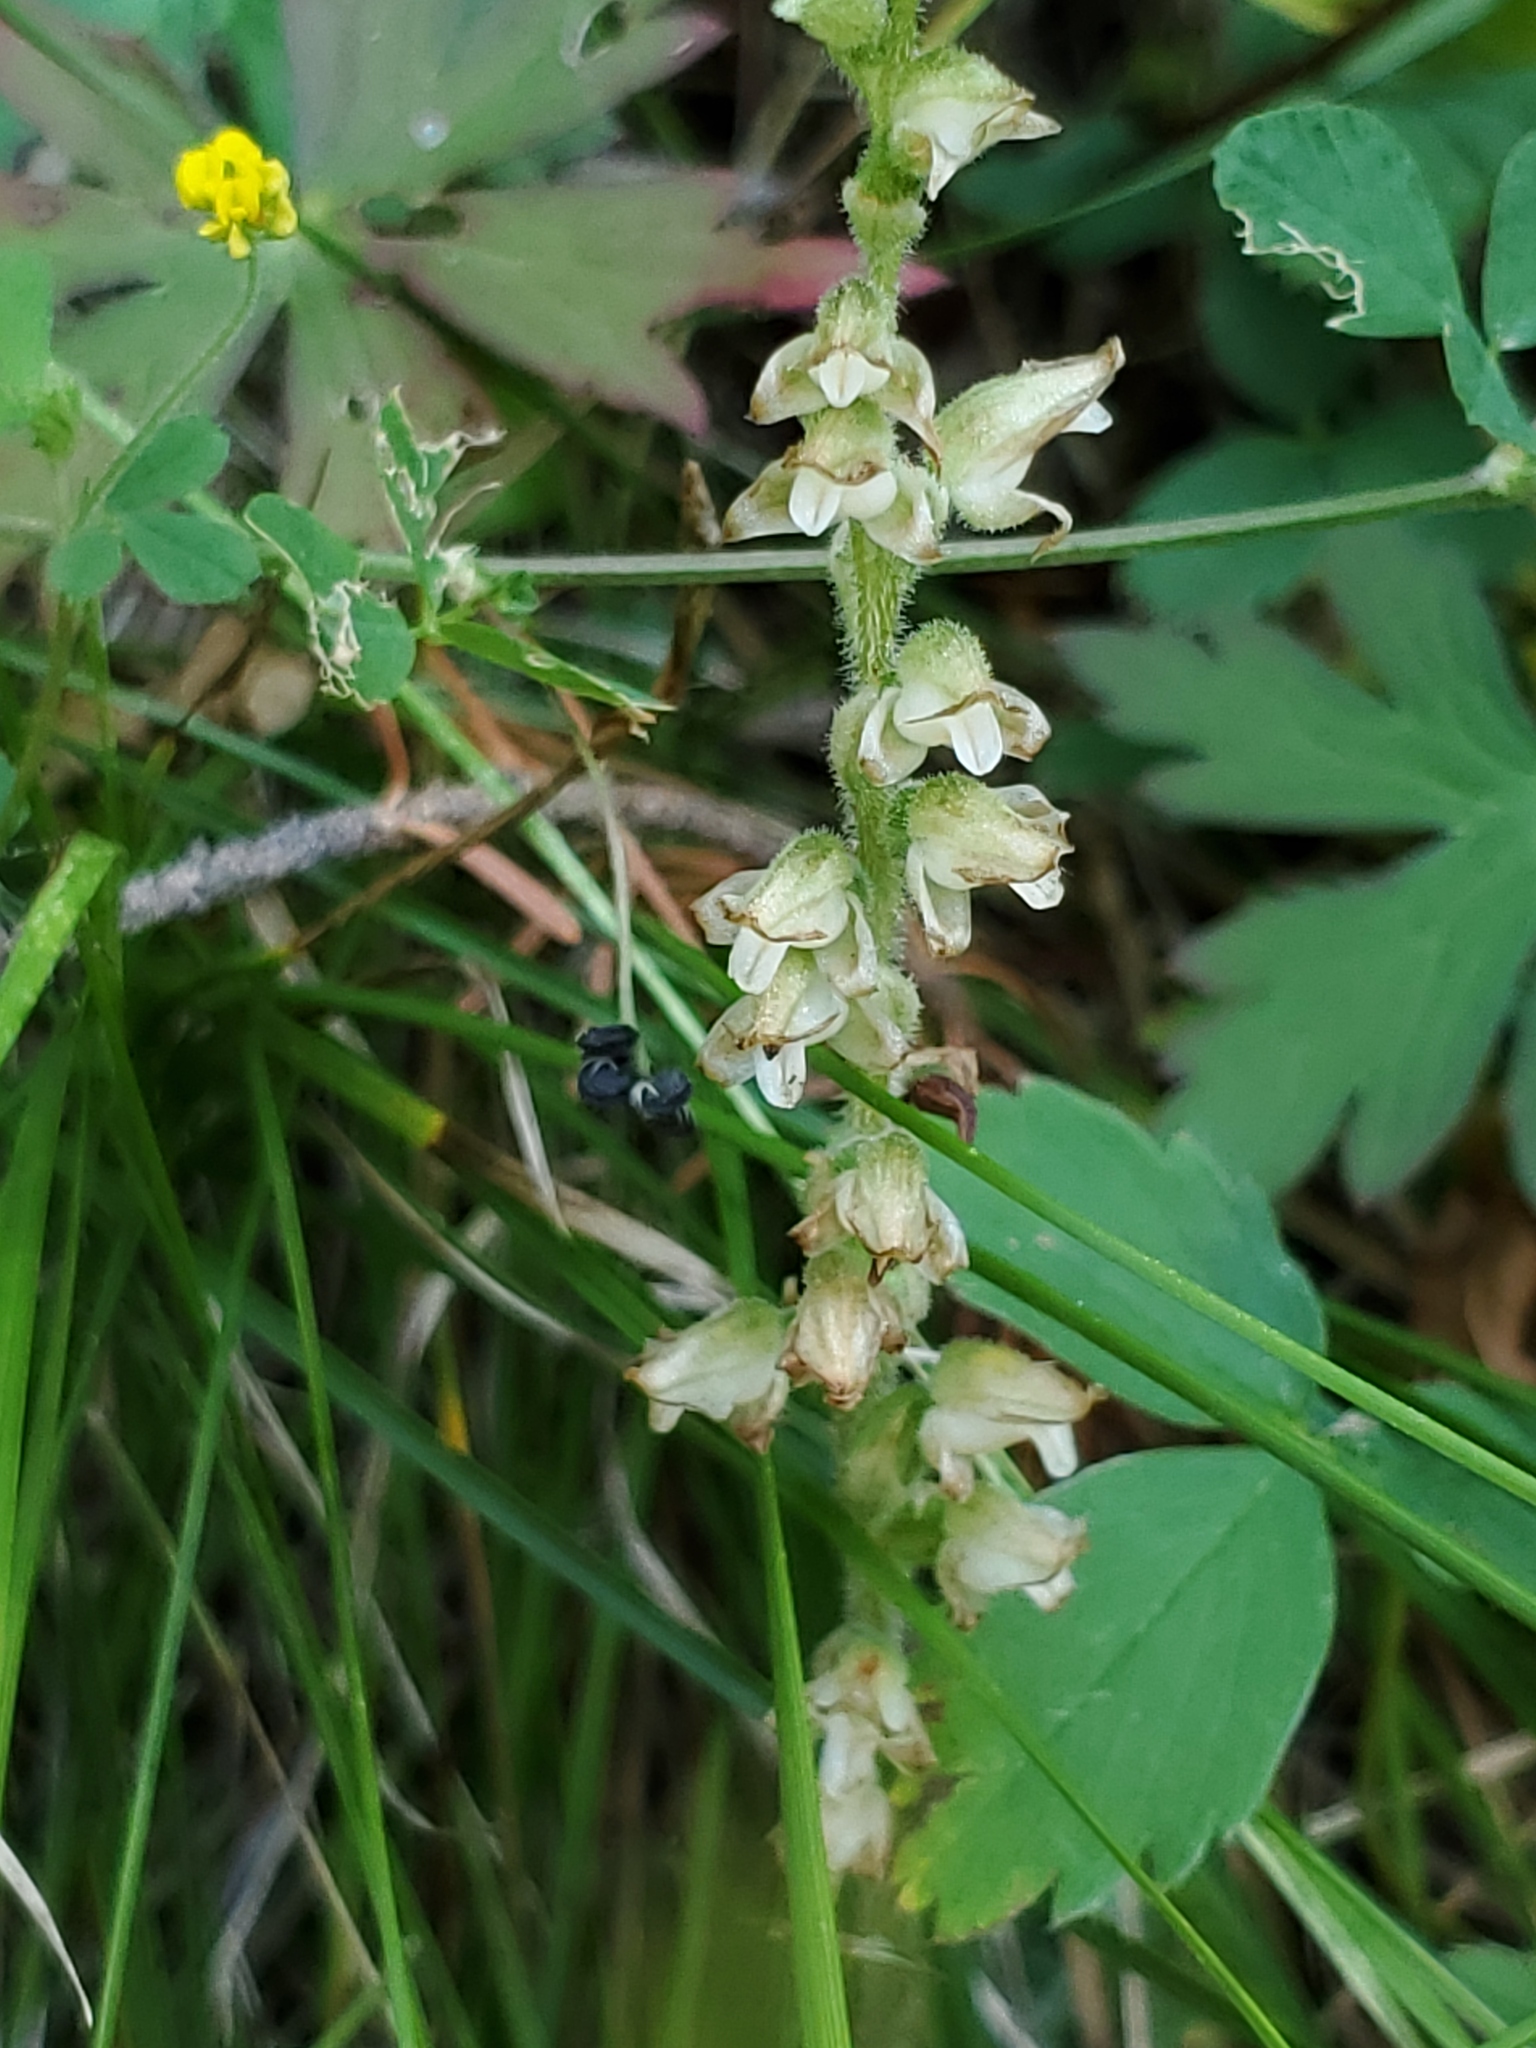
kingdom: Plantae
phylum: Tracheophyta
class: Liliopsida
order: Asparagales
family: Orchidaceae
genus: Goodyera
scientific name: Goodyera oblongifolia
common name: Giant rattlesnake-plantain
